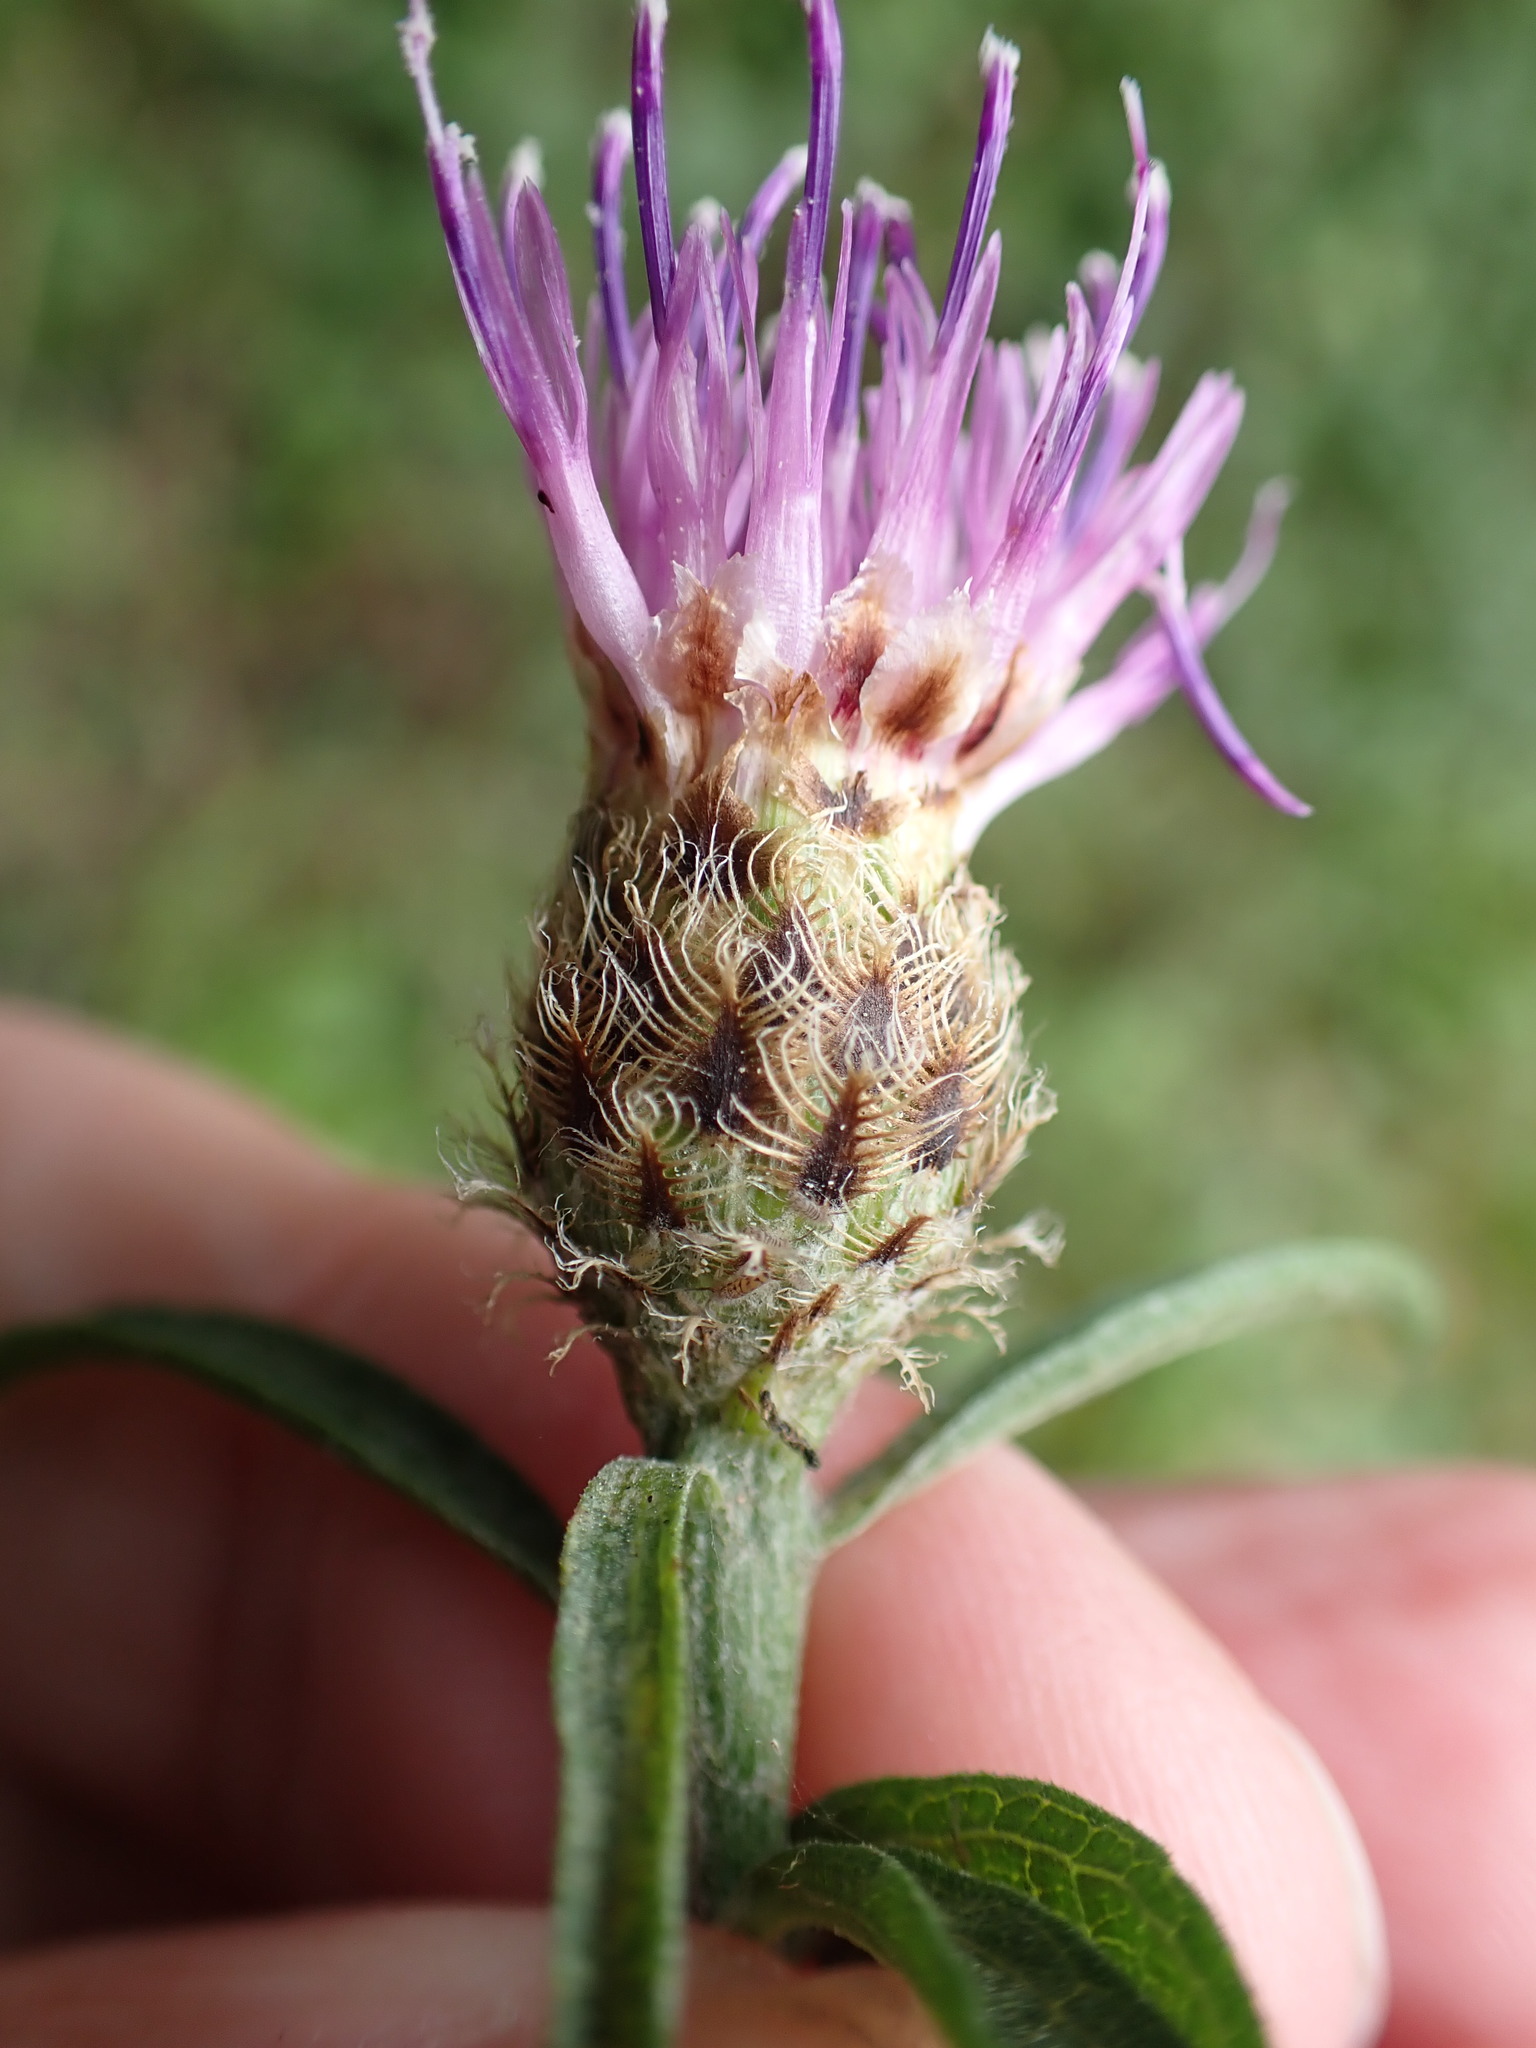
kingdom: Plantae
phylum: Tracheophyta
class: Magnoliopsida
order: Asterales
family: Asteraceae
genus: Centaurea
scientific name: Centaurea debeauxii
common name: Slender knapweed
